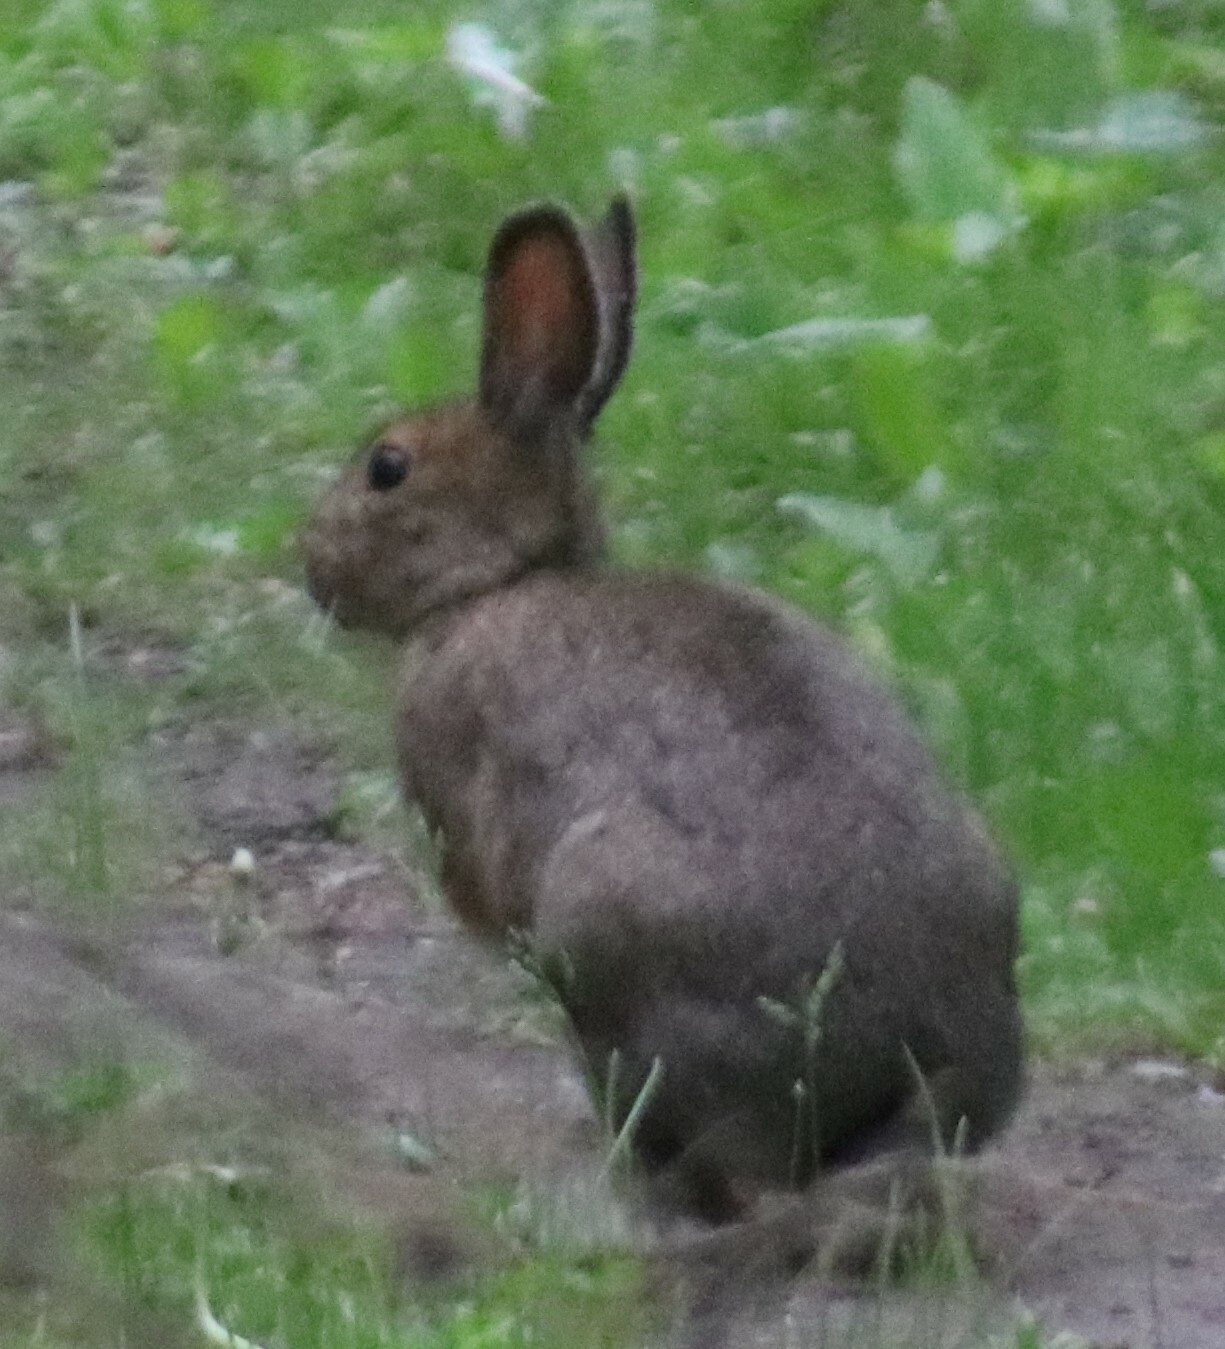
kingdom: Animalia
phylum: Chordata
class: Mammalia
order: Lagomorpha
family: Leporidae
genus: Lepus
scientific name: Lepus americanus
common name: Snowshoe hare
